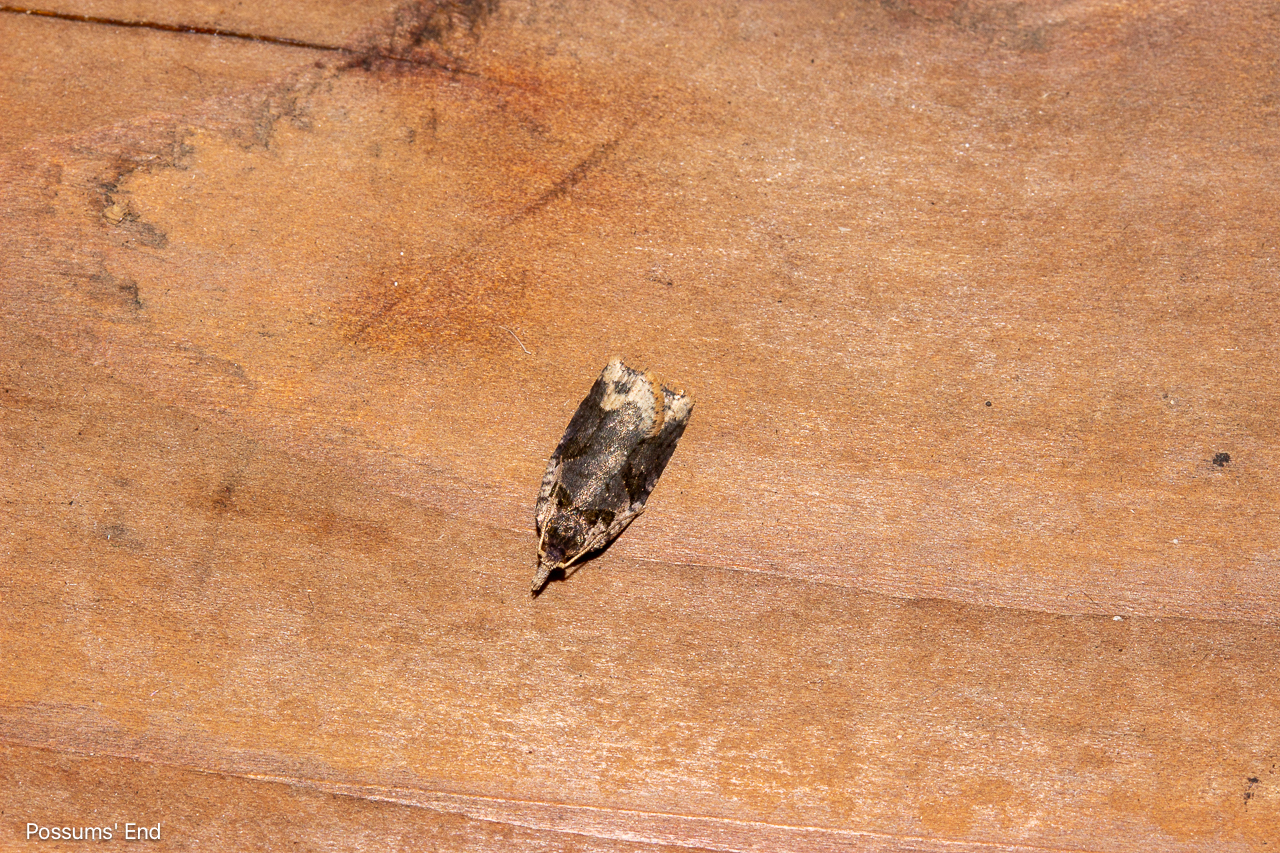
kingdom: Animalia
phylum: Arthropoda
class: Insecta
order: Lepidoptera
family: Tortricidae
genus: Ctenopseustis
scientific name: Ctenopseustis obliquana
